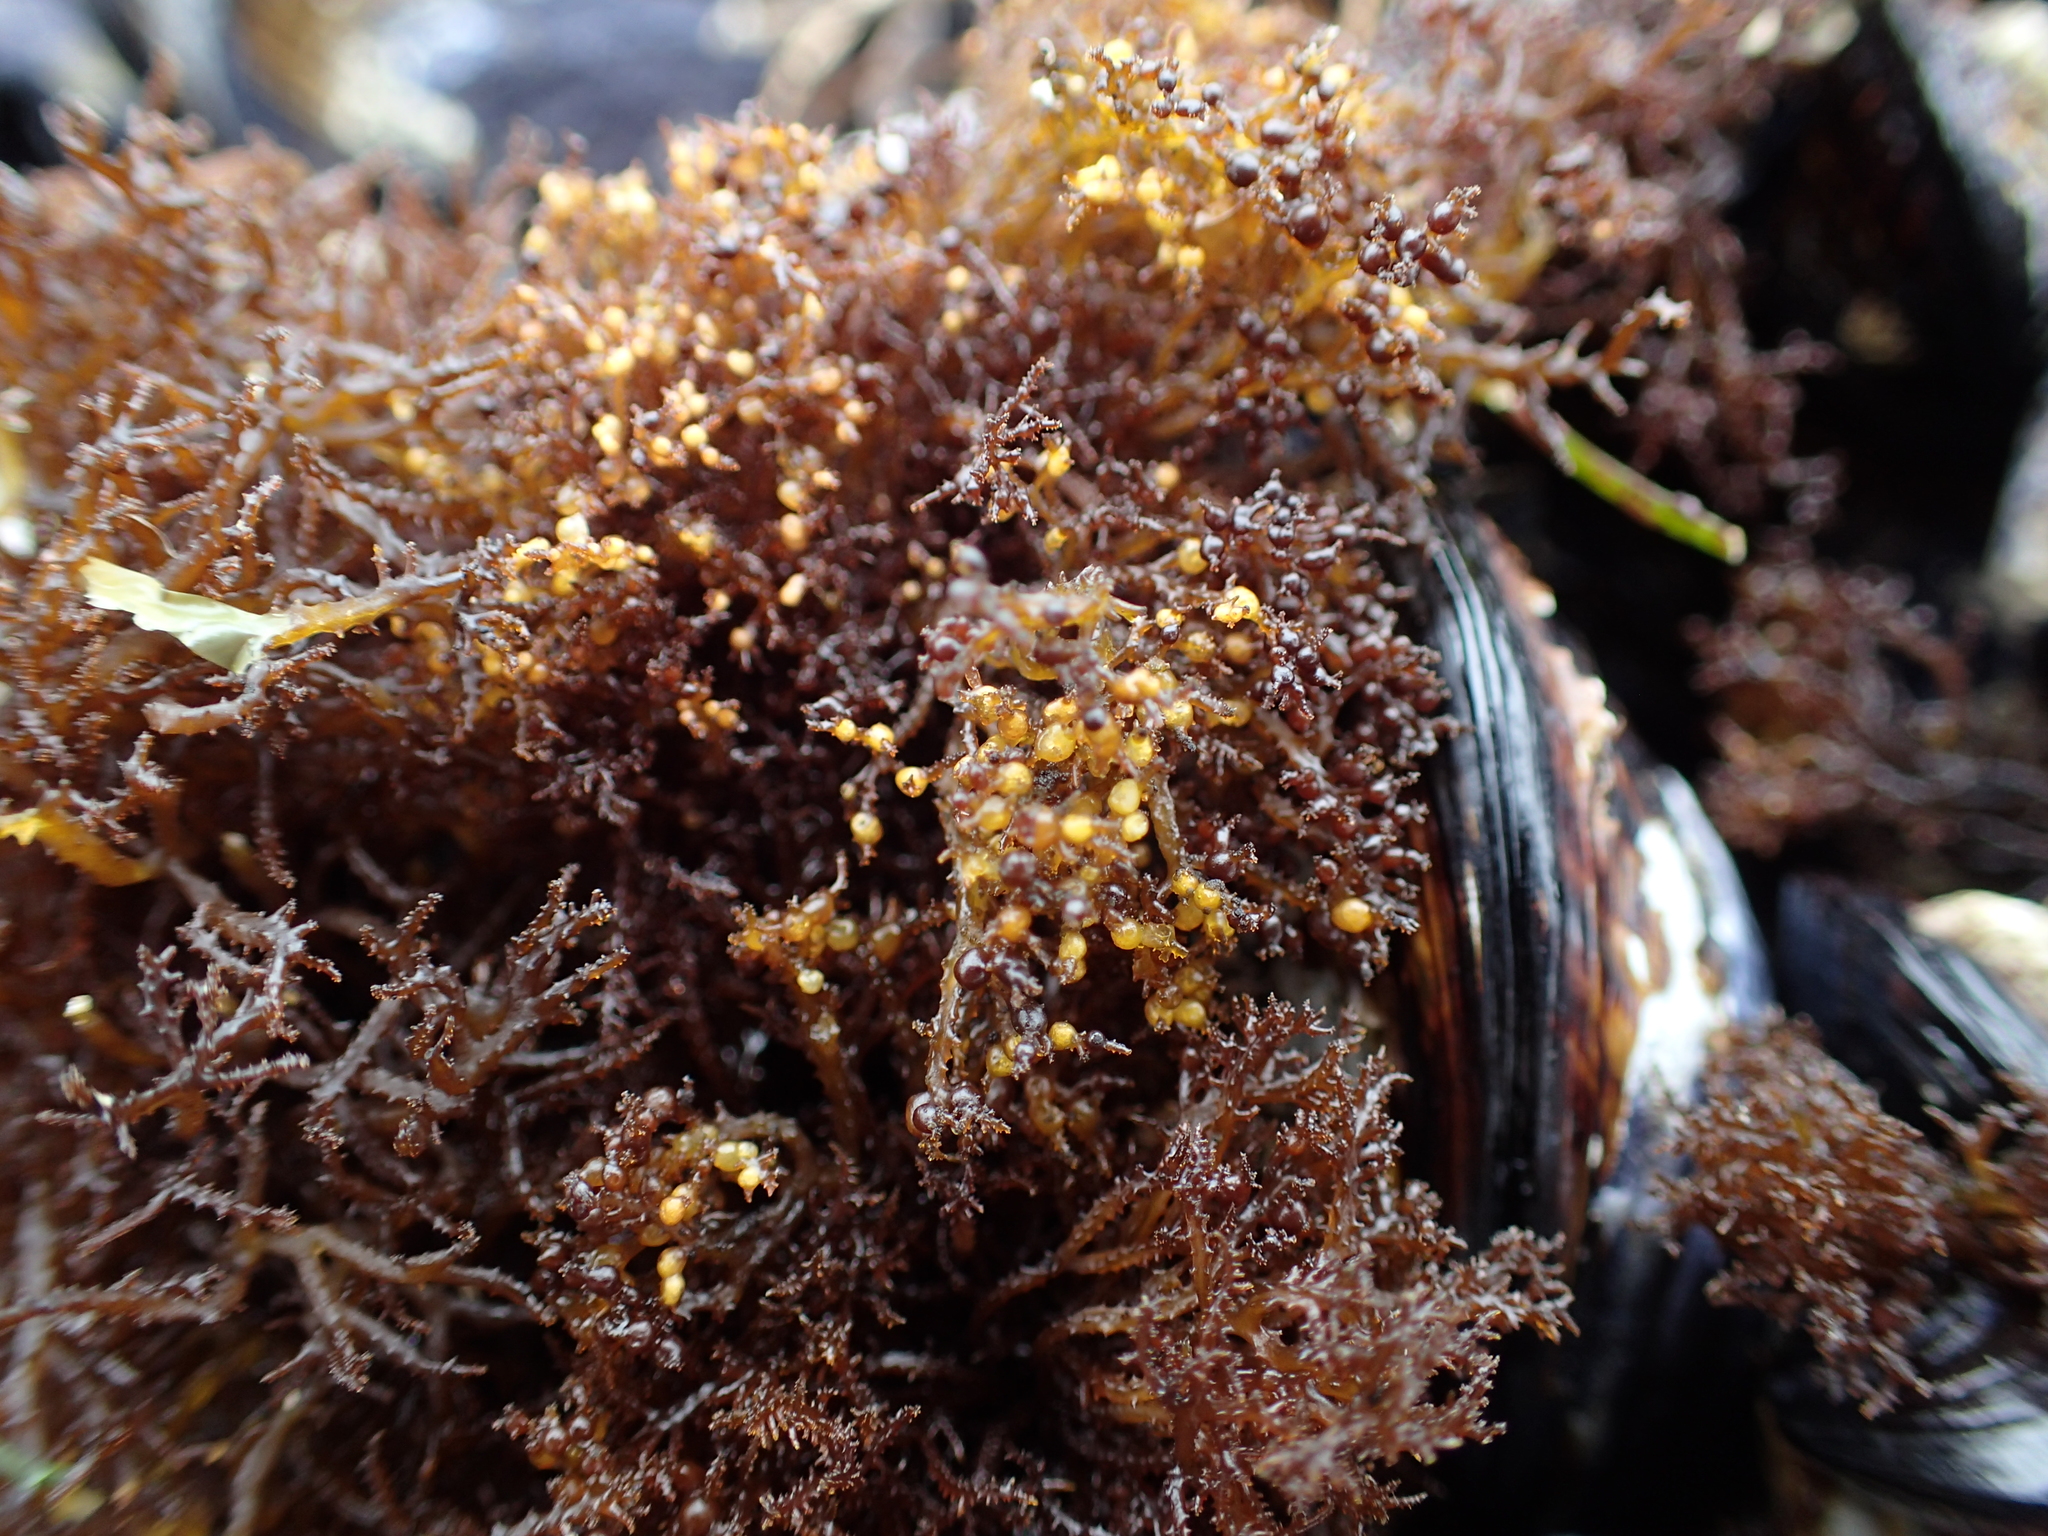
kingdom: Plantae
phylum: Rhodophyta
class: Florideophyceae
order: Gigartinales
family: Endocladiaceae
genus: Endocladia
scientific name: Endocladia muricata
